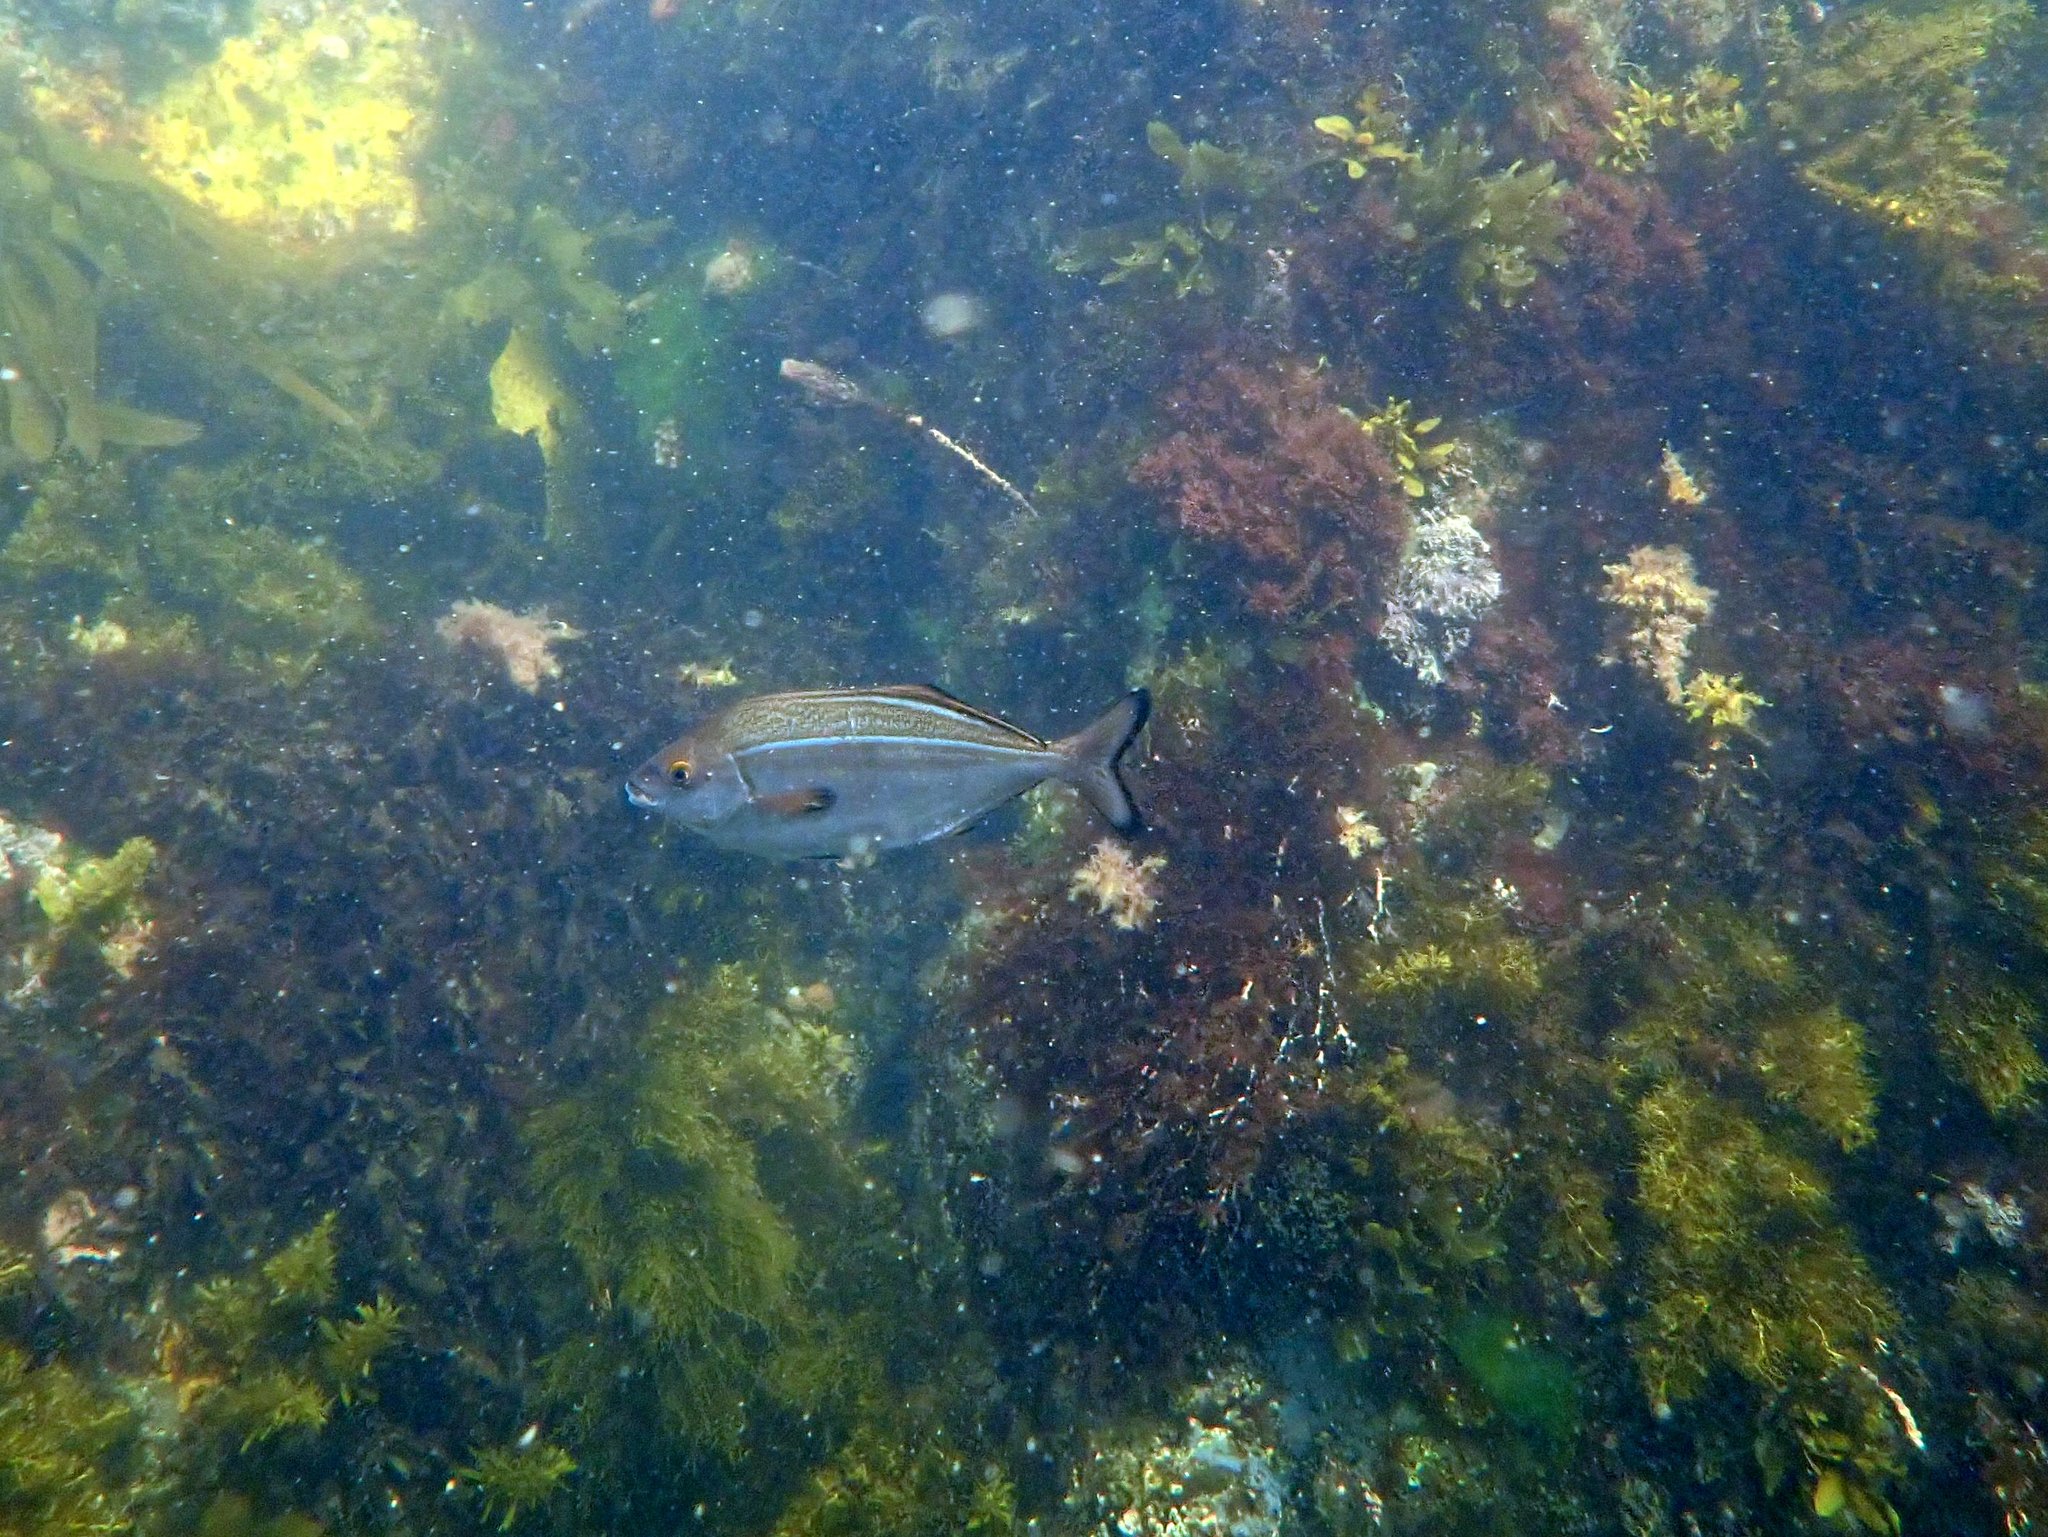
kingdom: Animalia
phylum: Chordata
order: Perciformes
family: Latridae
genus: Latridopsis
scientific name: Latridopsis forsteri
